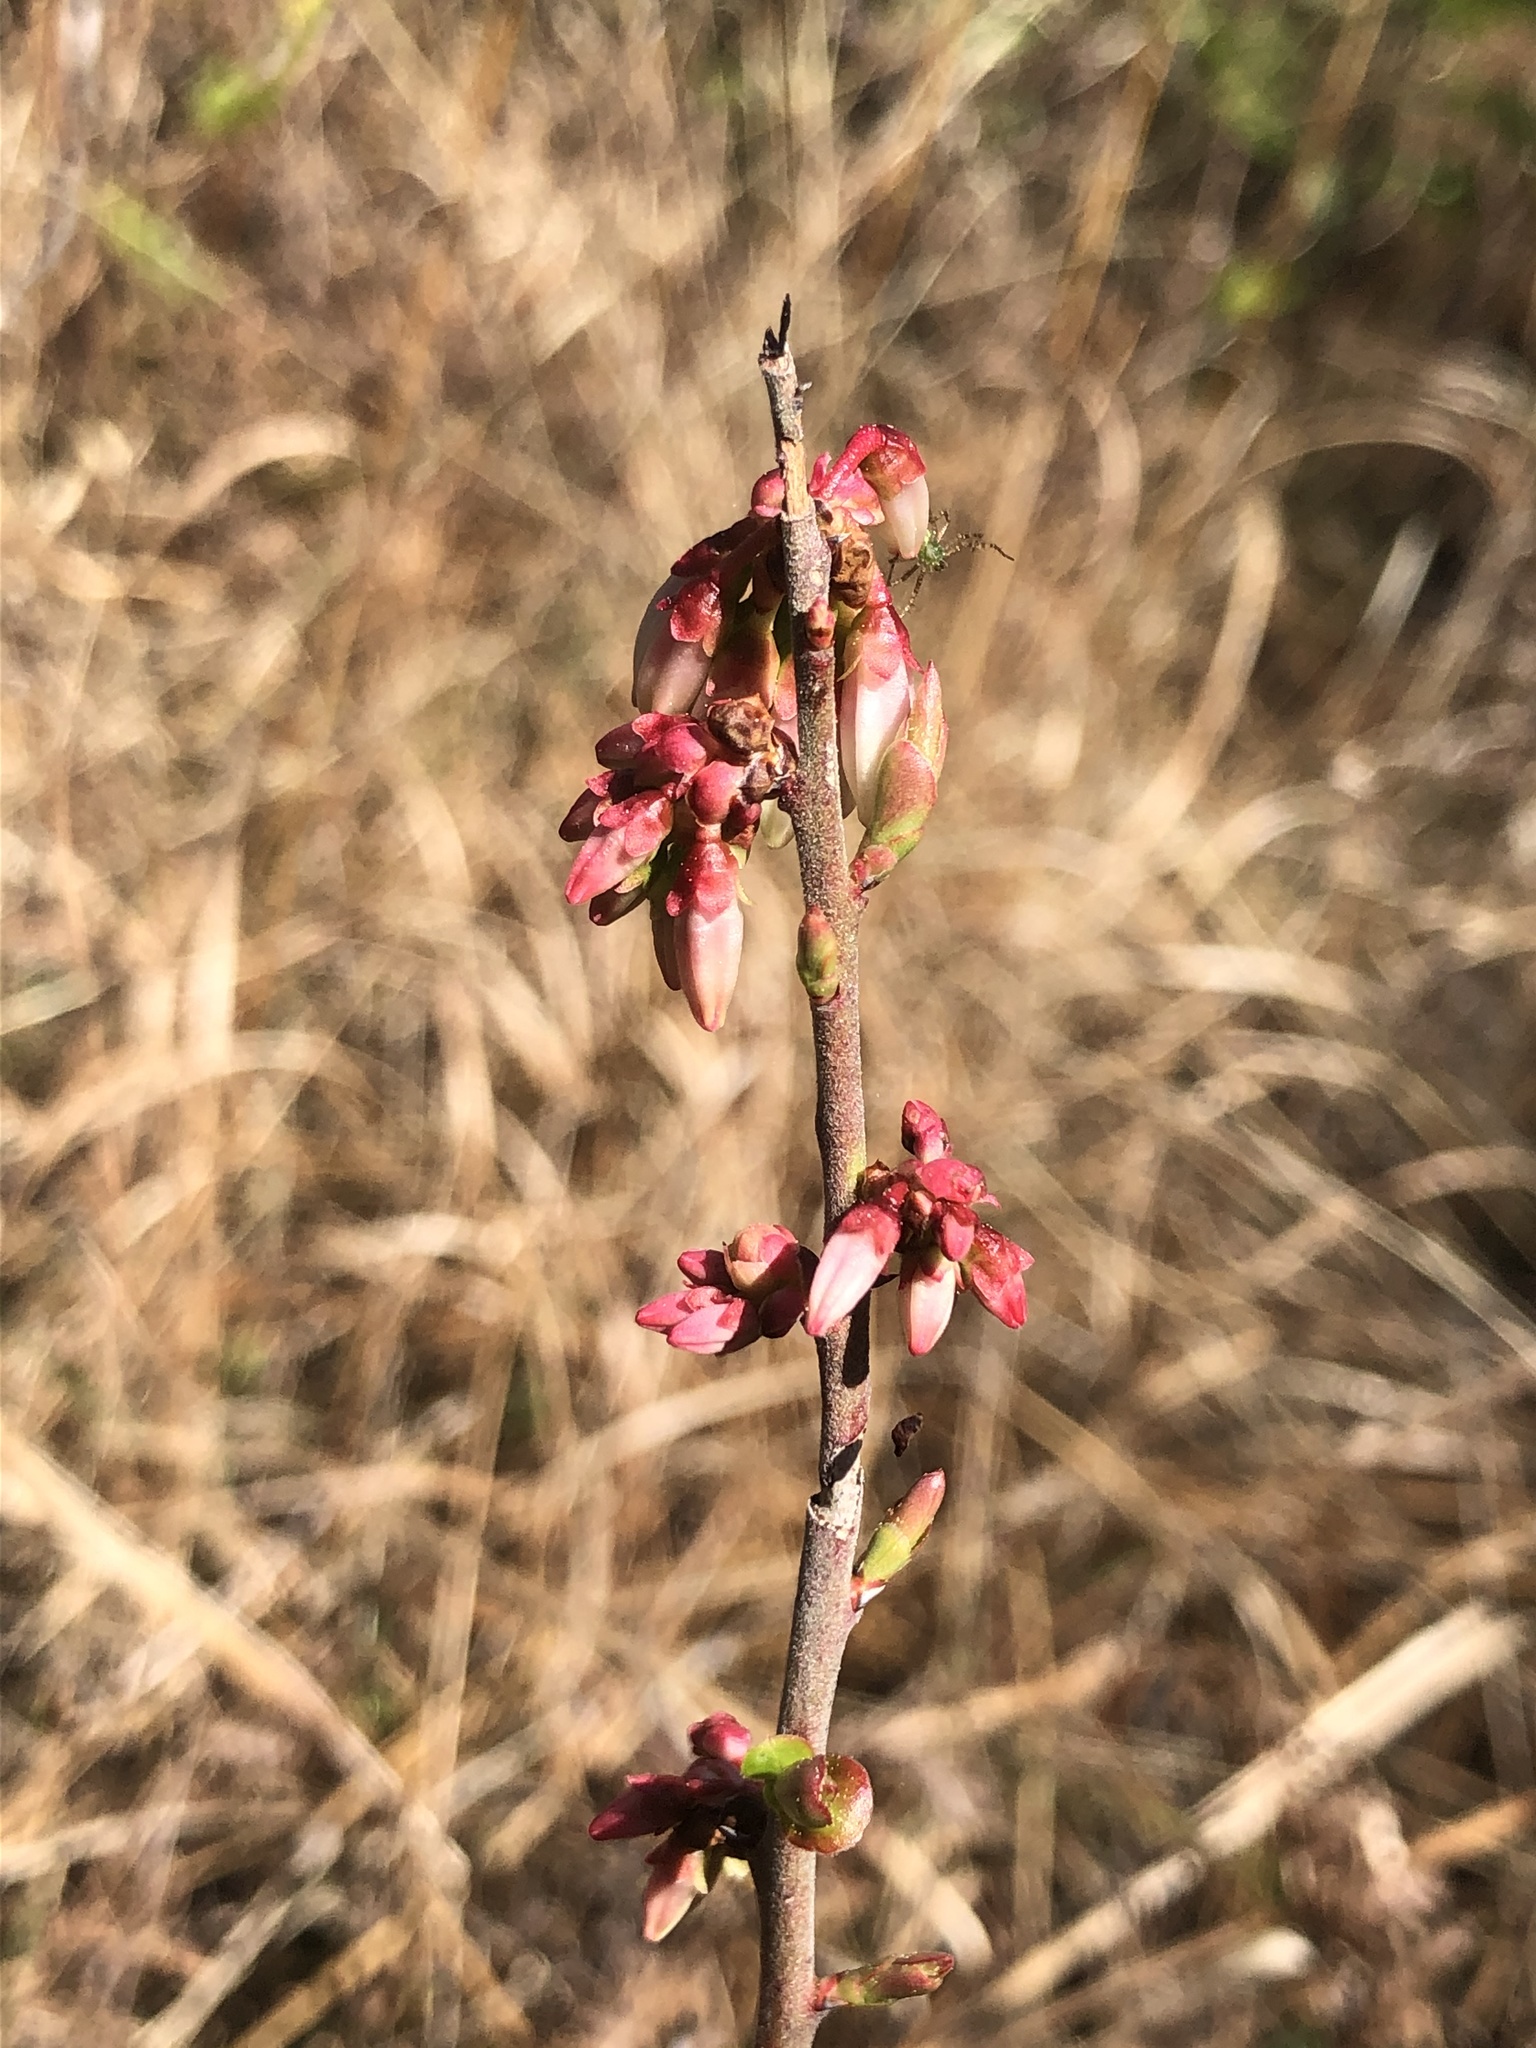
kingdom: Plantae
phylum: Tracheophyta
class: Magnoliopsida
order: Ericales
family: Ericaceae
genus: Vaccinium
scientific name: Vaccinium tenellum
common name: Southern blueberry
